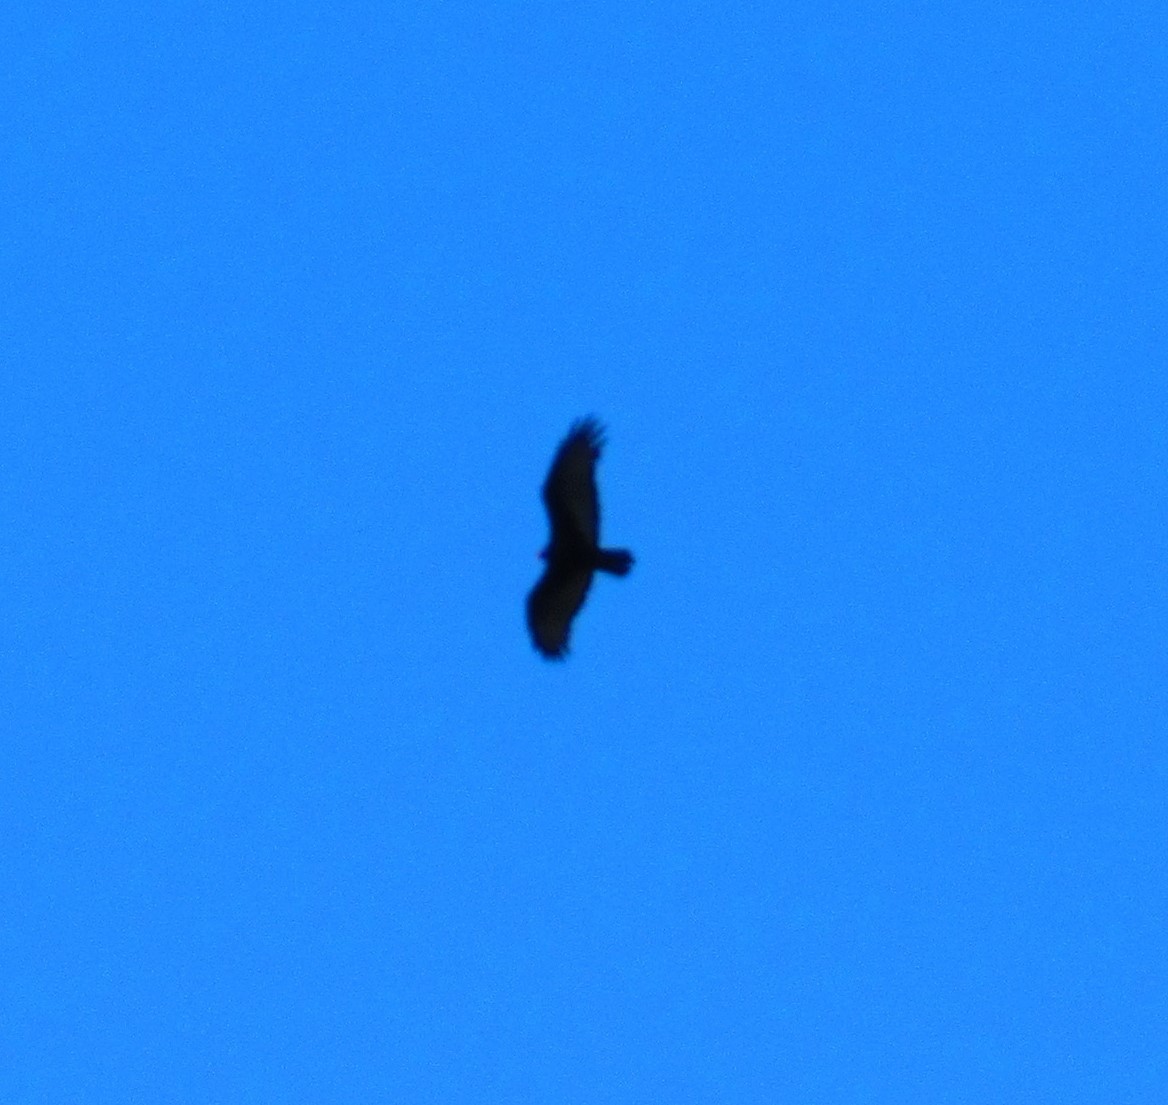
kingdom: Animalia
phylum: Chordata
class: Aves
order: Accipitriformes
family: Cathartidae
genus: Cathartes
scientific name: Cathartes aura
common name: Turkey vulture
